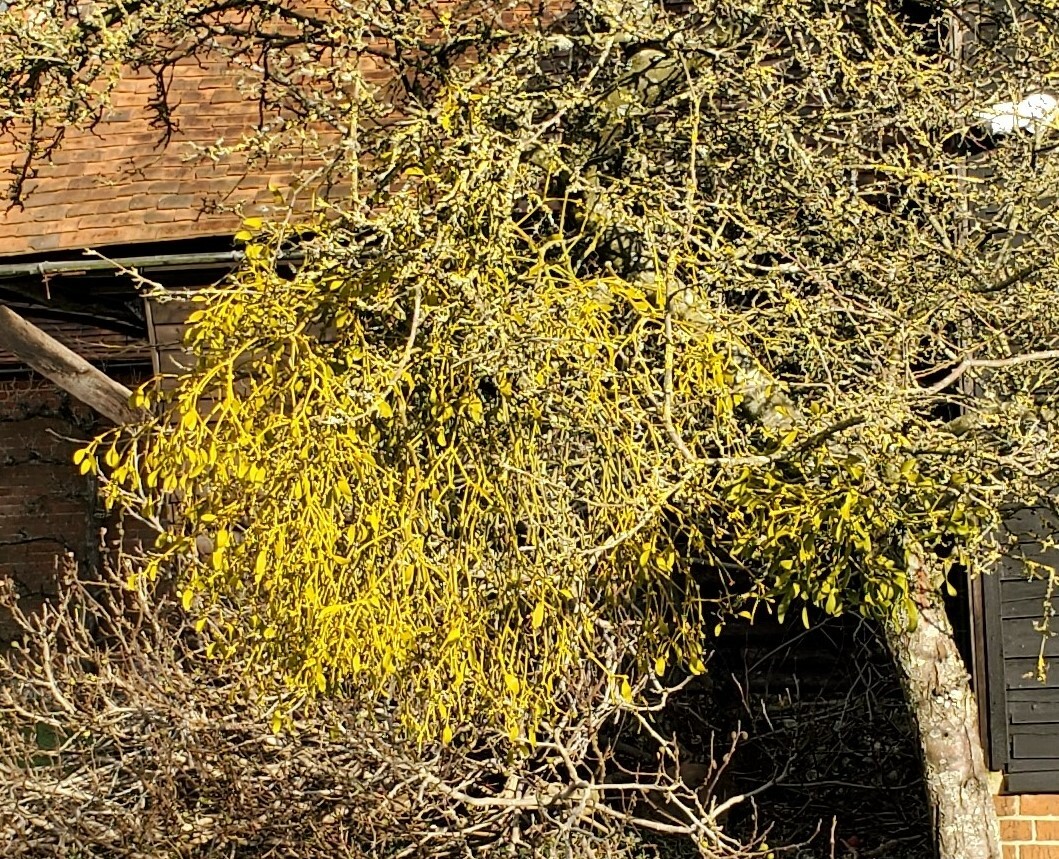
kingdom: Plantae
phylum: Tracheophyta
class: Magnoliopsida
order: Santalales
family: Viscaceae
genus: Viscum
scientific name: Viscum album
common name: Mistletoe
